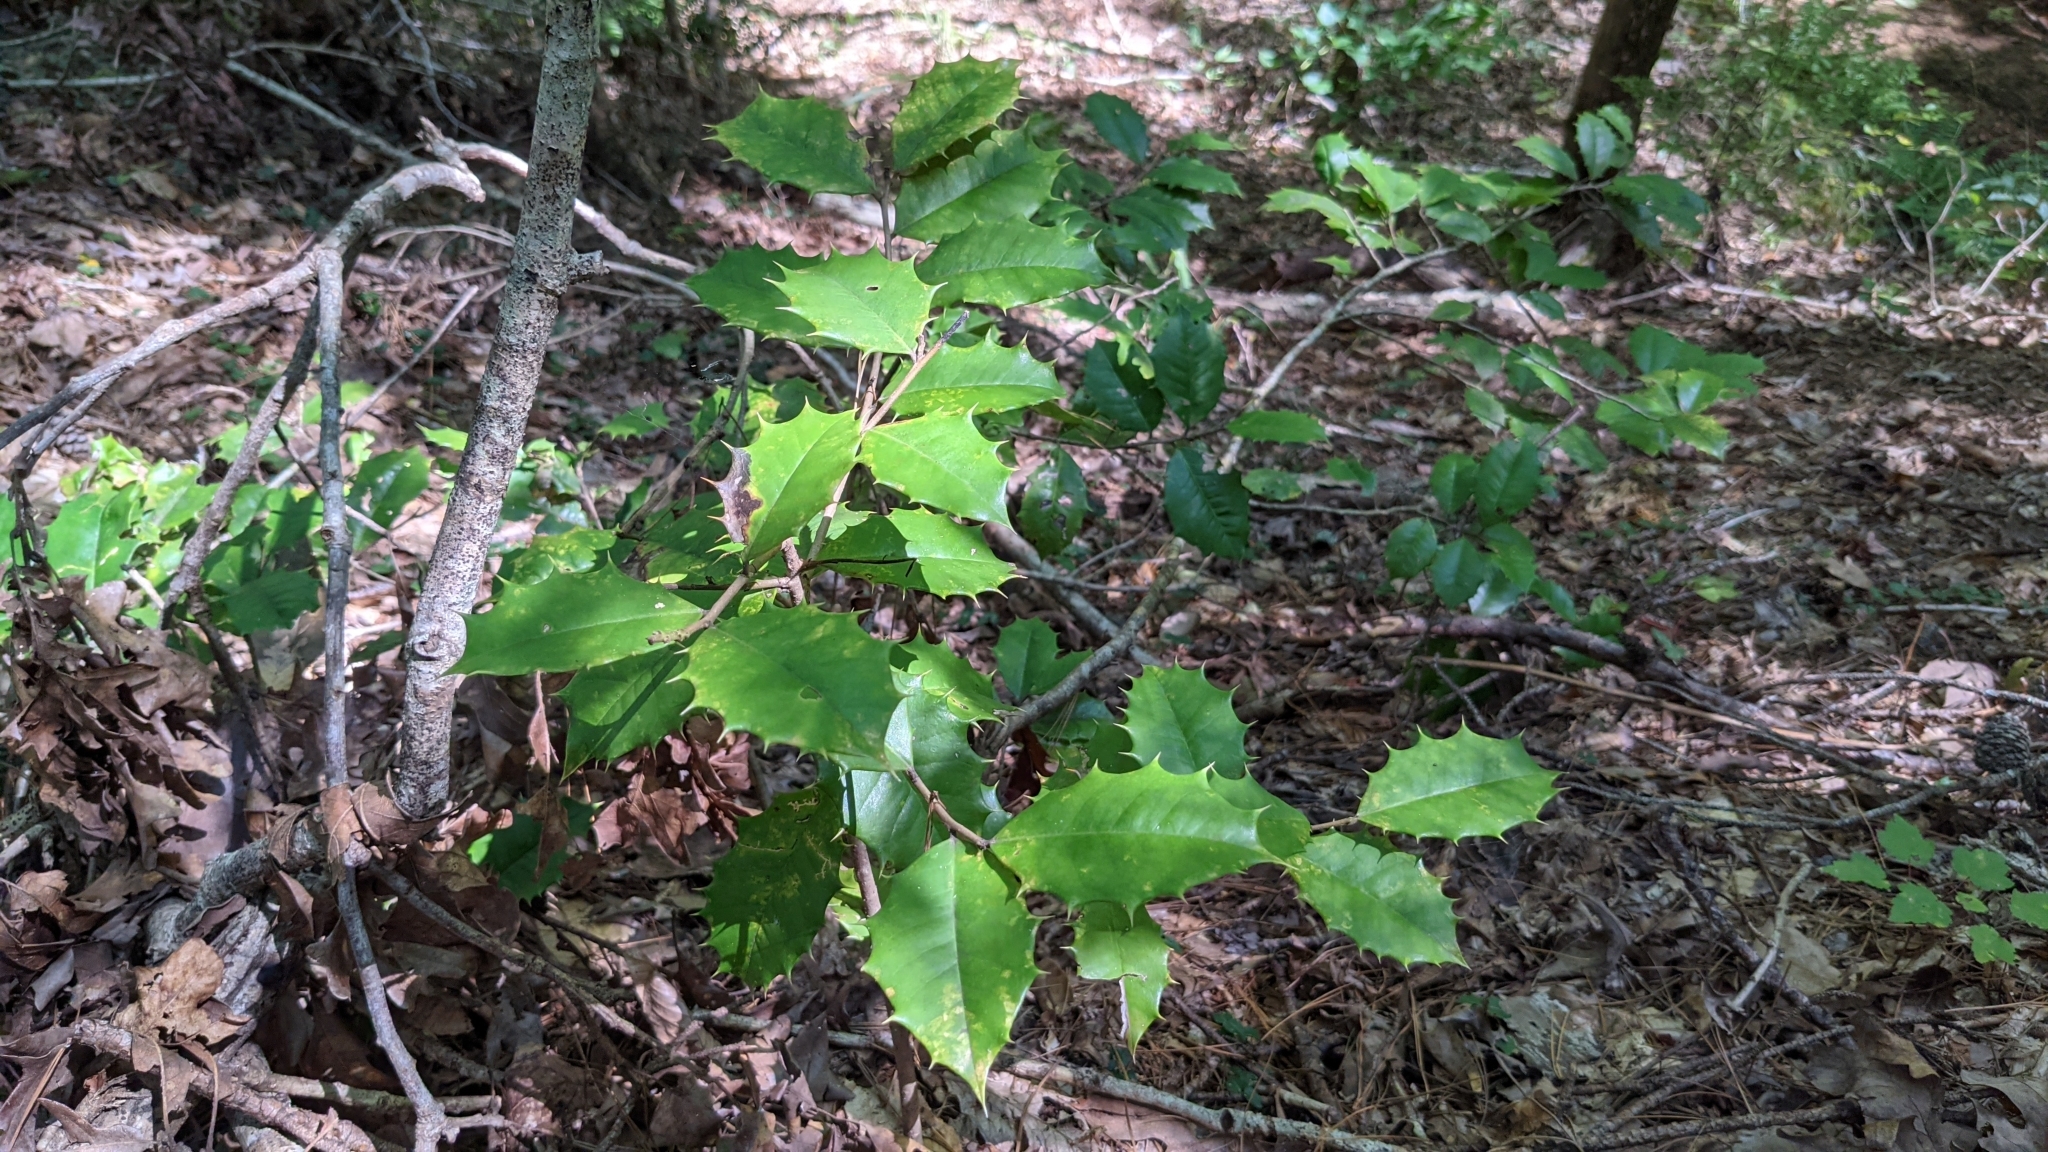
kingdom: Plantae
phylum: Tracheophyta
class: Magnoliopsida
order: Aquifoliales
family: Aquifoliaceae
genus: Ilex
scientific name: Ilex opaca
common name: American holly
